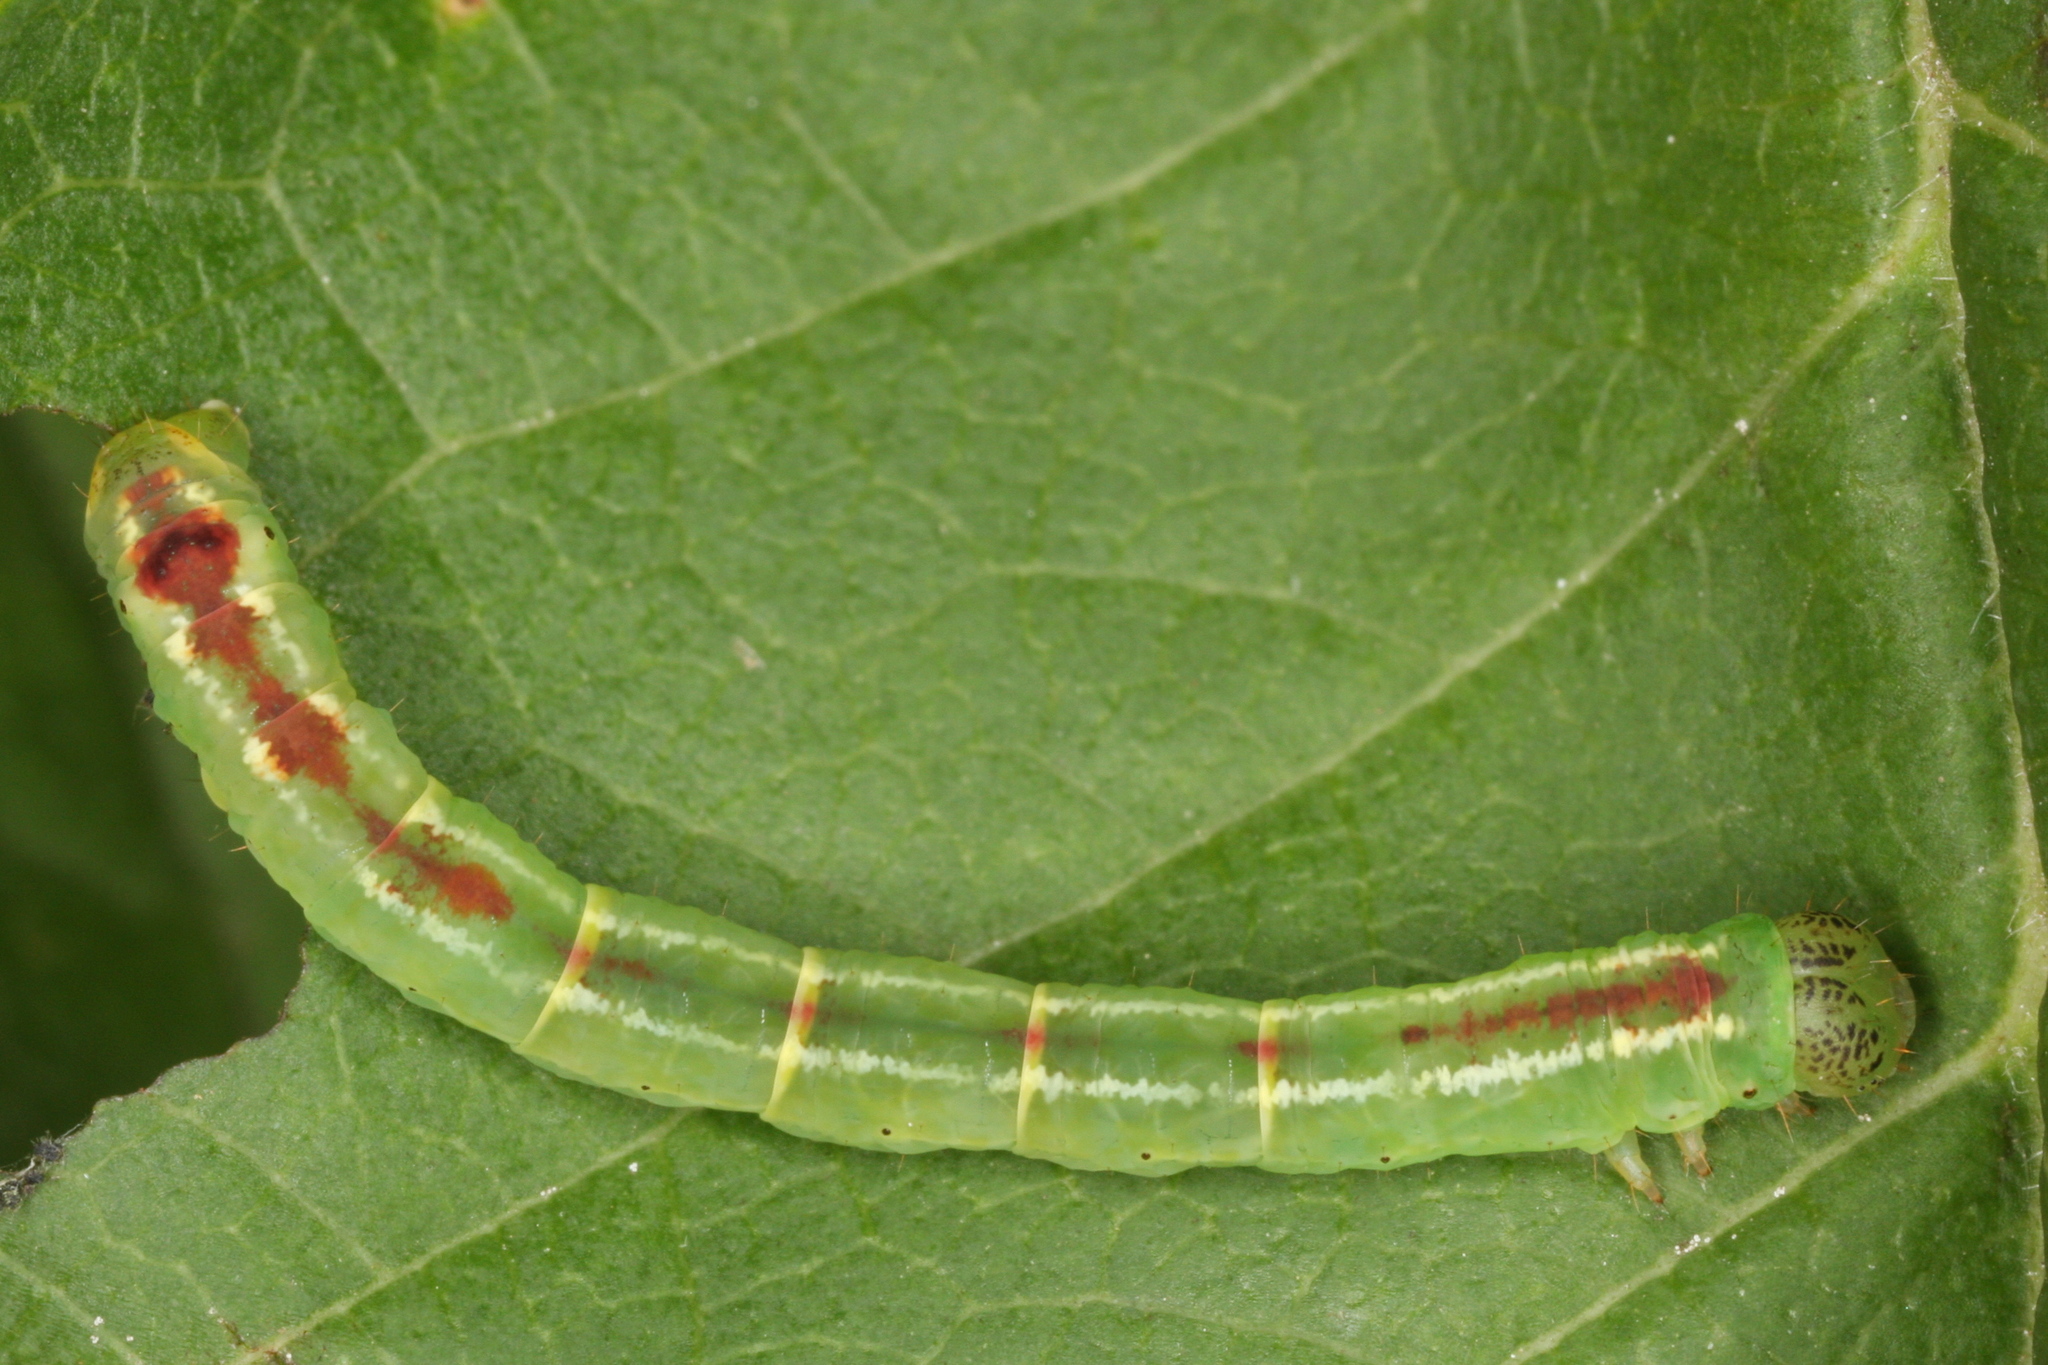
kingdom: Animalia
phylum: Arthropoda
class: Insecta
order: Lepidoptera
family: Geometridae
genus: Lomographa
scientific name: Lomographa bimaculata
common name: White-pinion spotted
